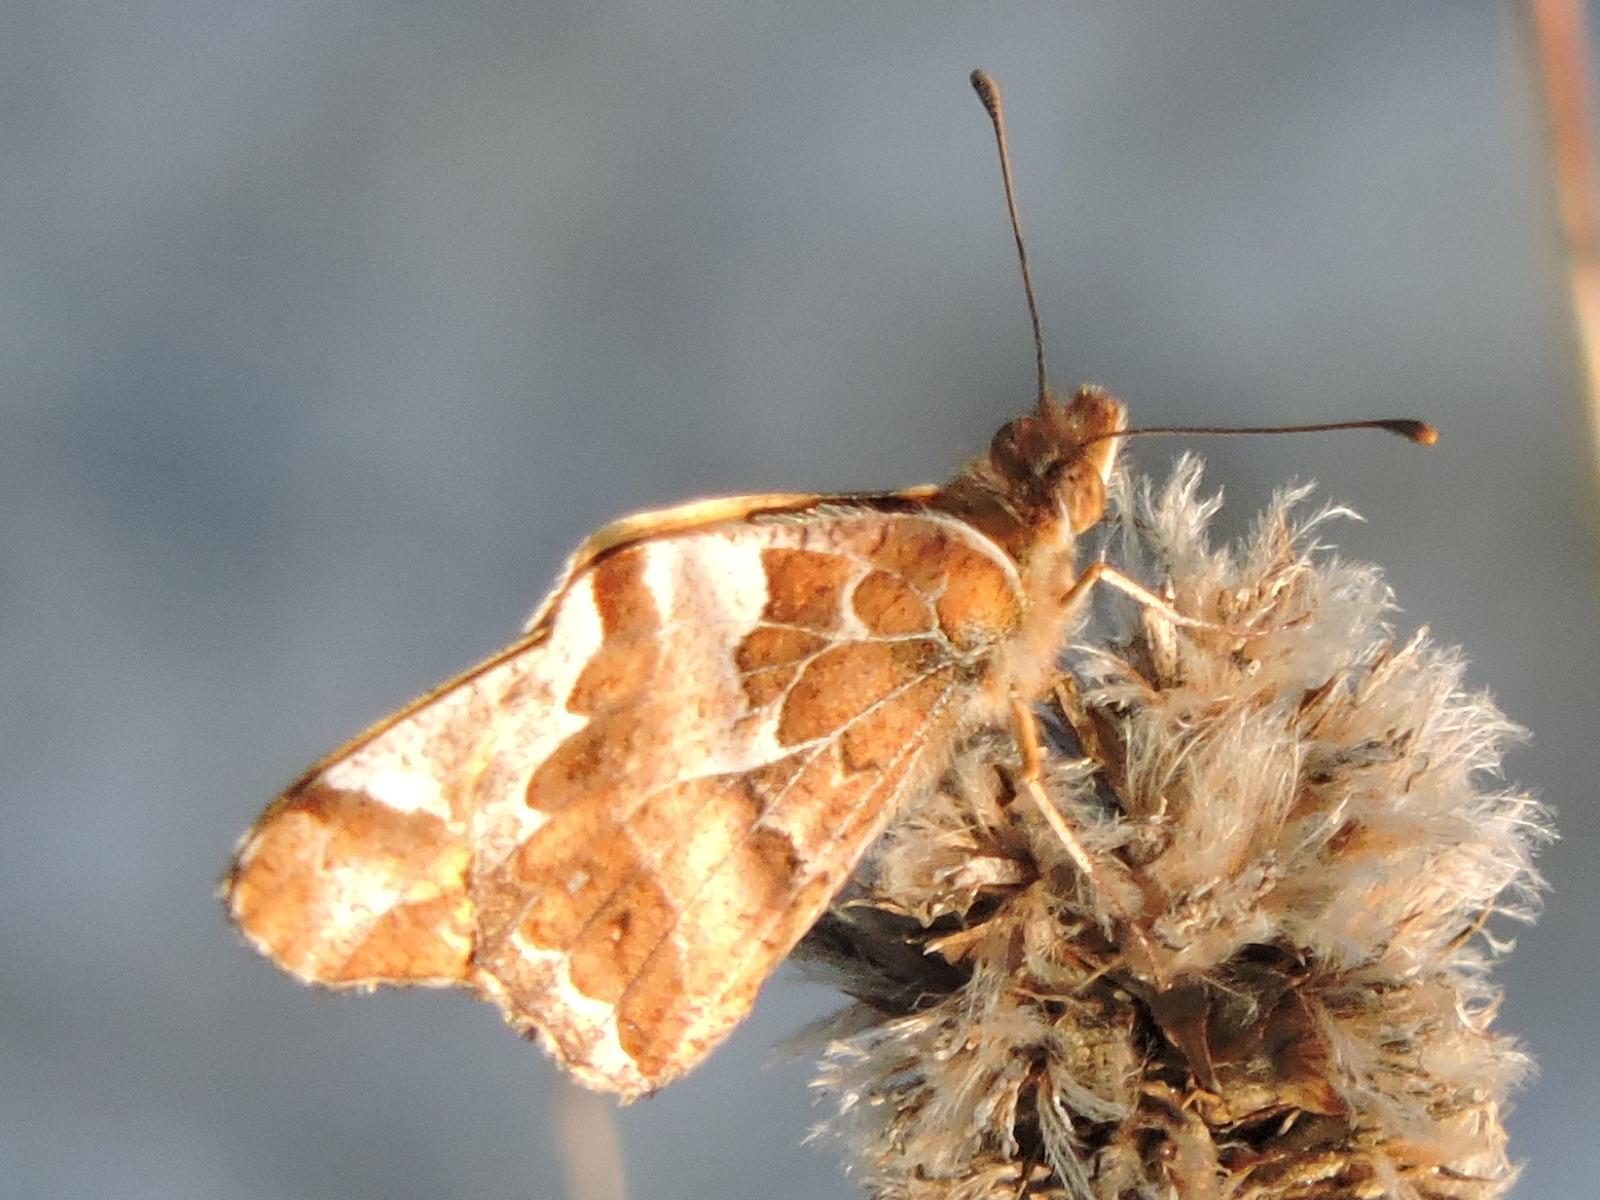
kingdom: Animalia
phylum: Arthropoda
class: Insecta
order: Lepidoptera
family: Nymphalidae
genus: Euptoieta
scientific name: Euptoieta claudia
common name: Variegated fritillary
